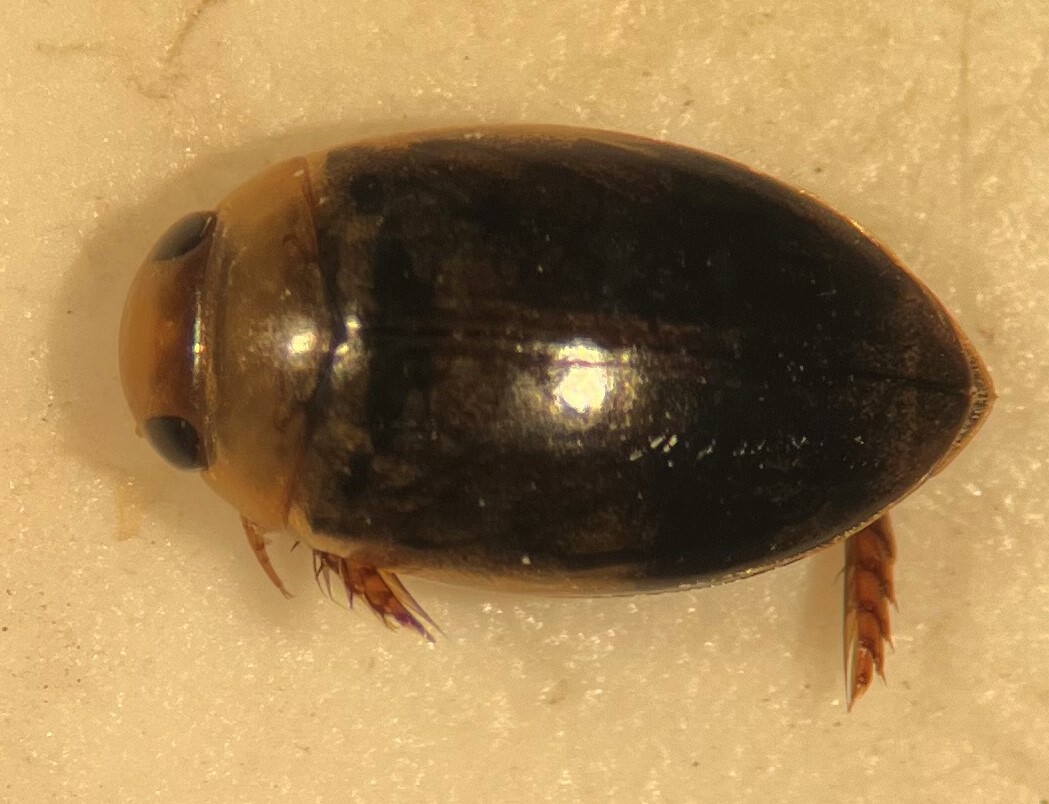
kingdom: Animalia
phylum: Arthropoda
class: Insecta
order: Coleoptera
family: Dytiscidae
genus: Laccophilus
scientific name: Laccophilus mexicanus
